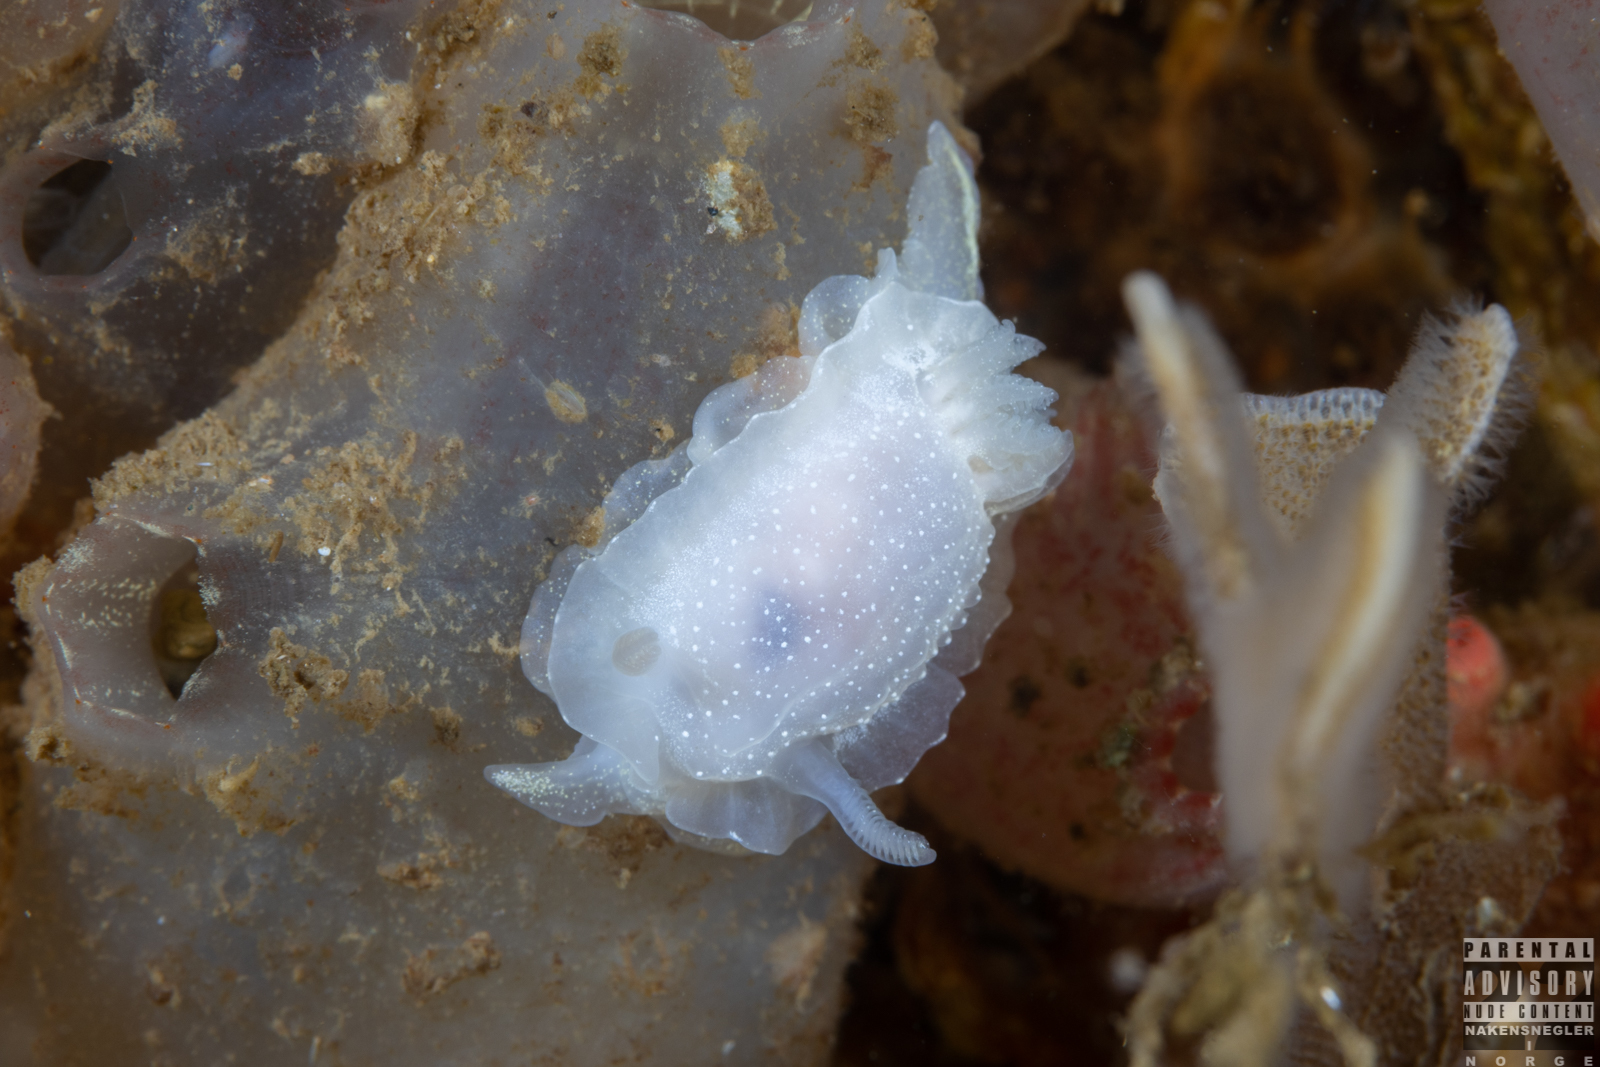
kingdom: Animalia
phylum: Mollusca
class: Gastropoda
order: Nudibranchia
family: Goniodorididae
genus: Okenia
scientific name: Okenia
